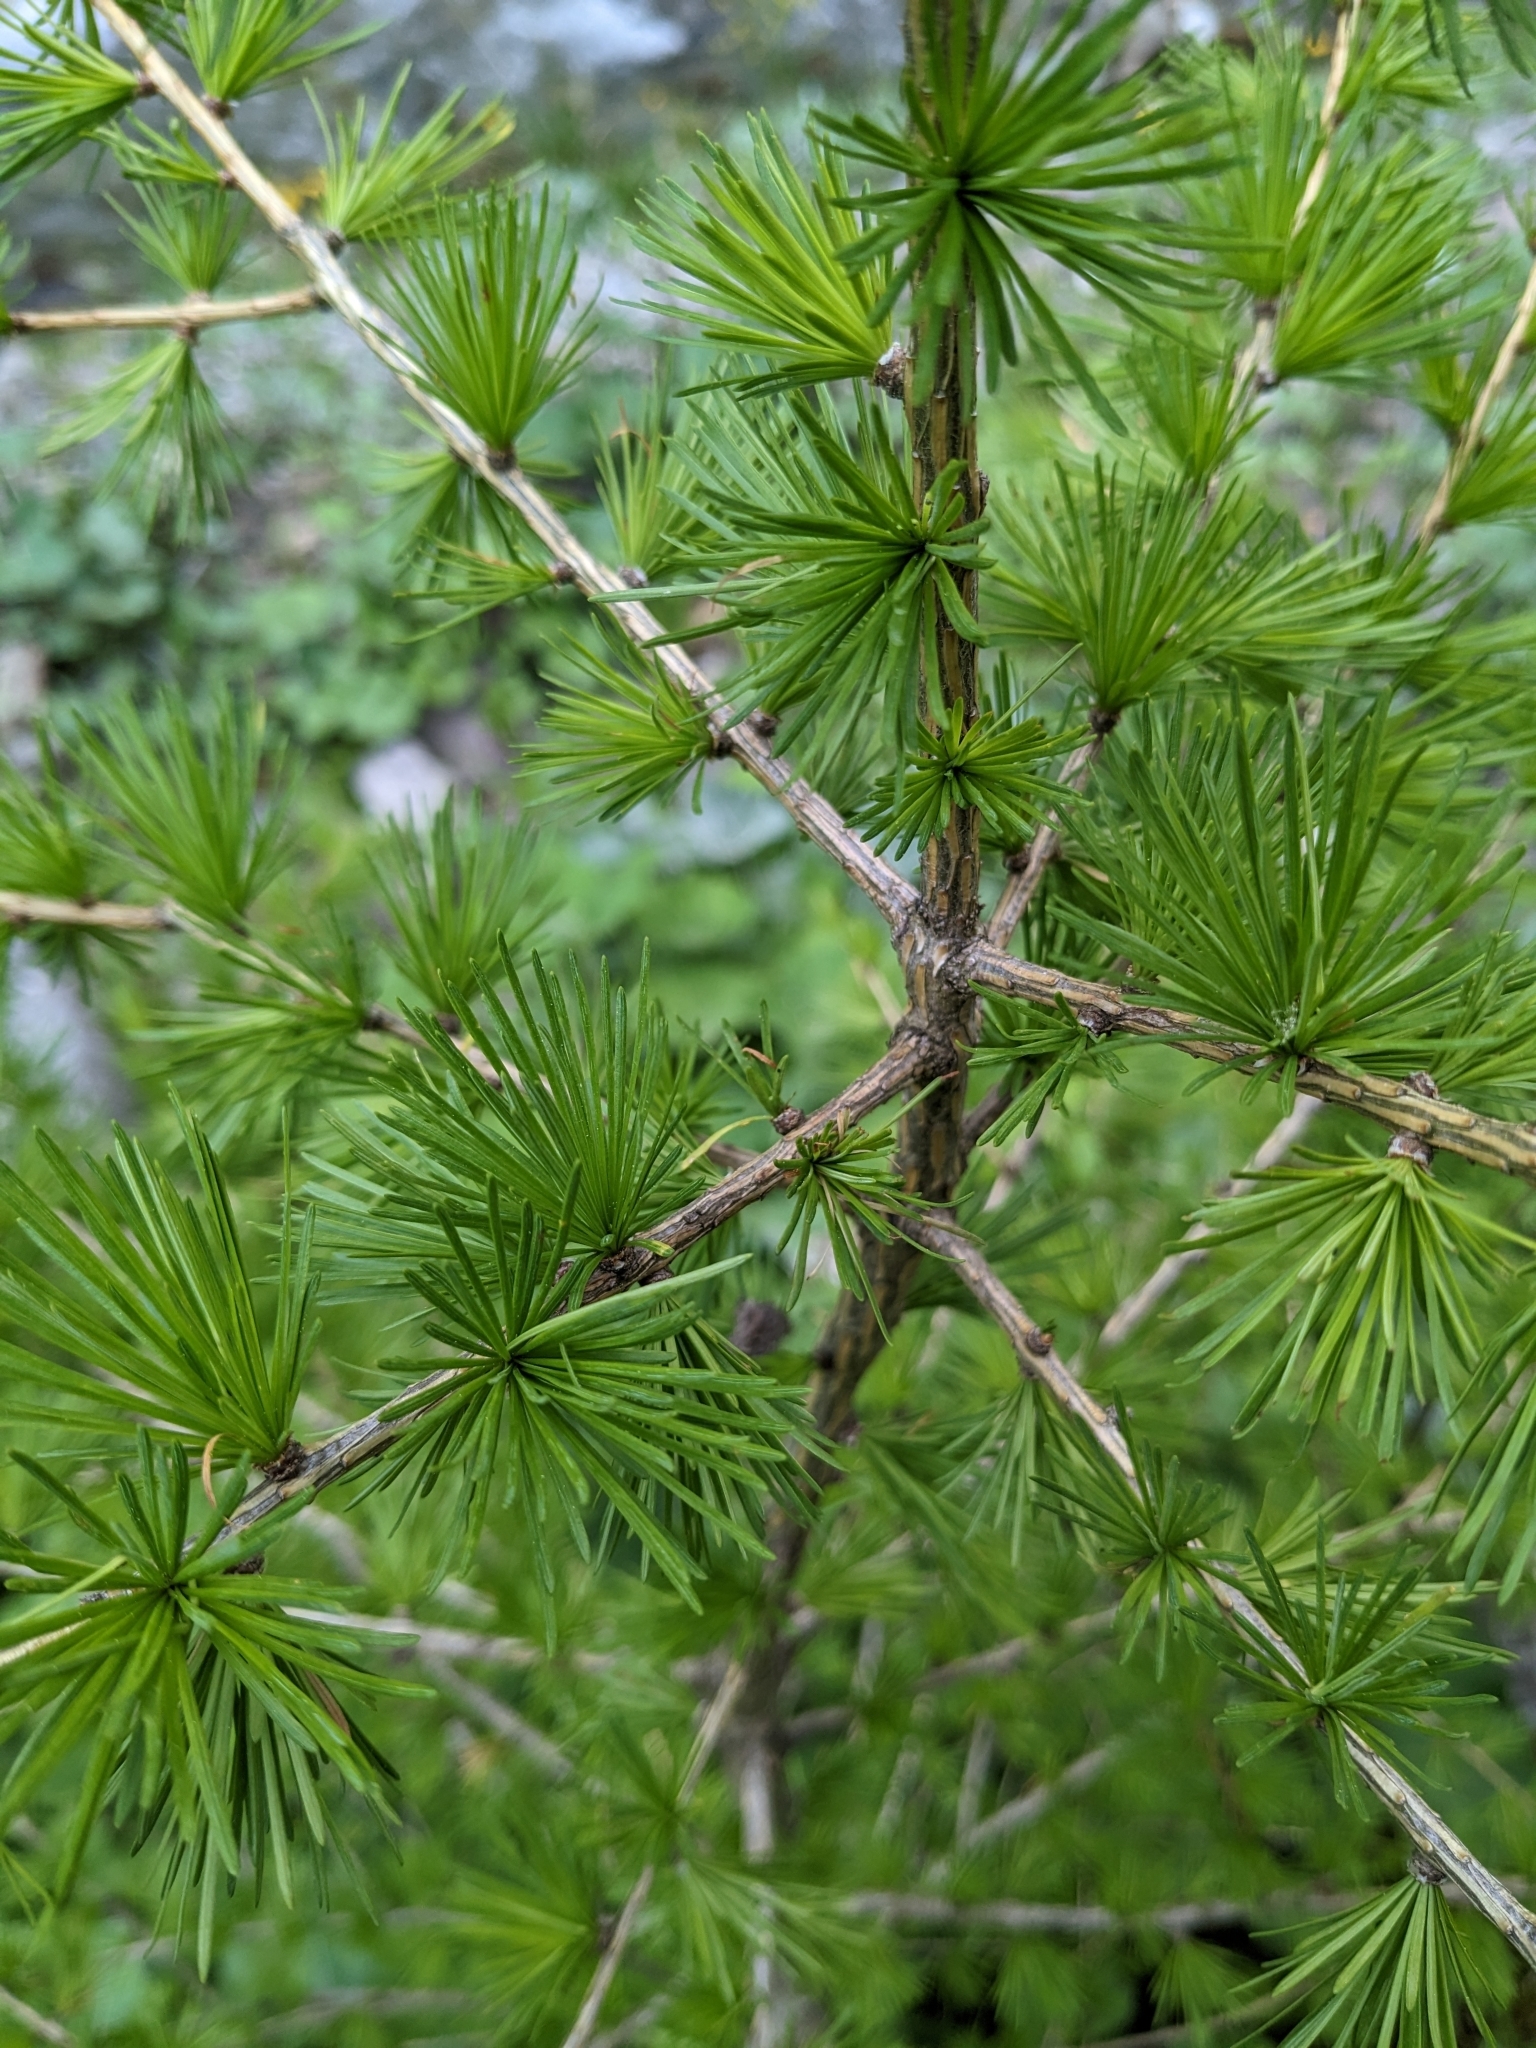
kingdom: Plantae
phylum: Tracheophyta
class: Pinopsida
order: Pinales
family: Pinaceae
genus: Larix
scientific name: Larix decidua
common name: European larch
